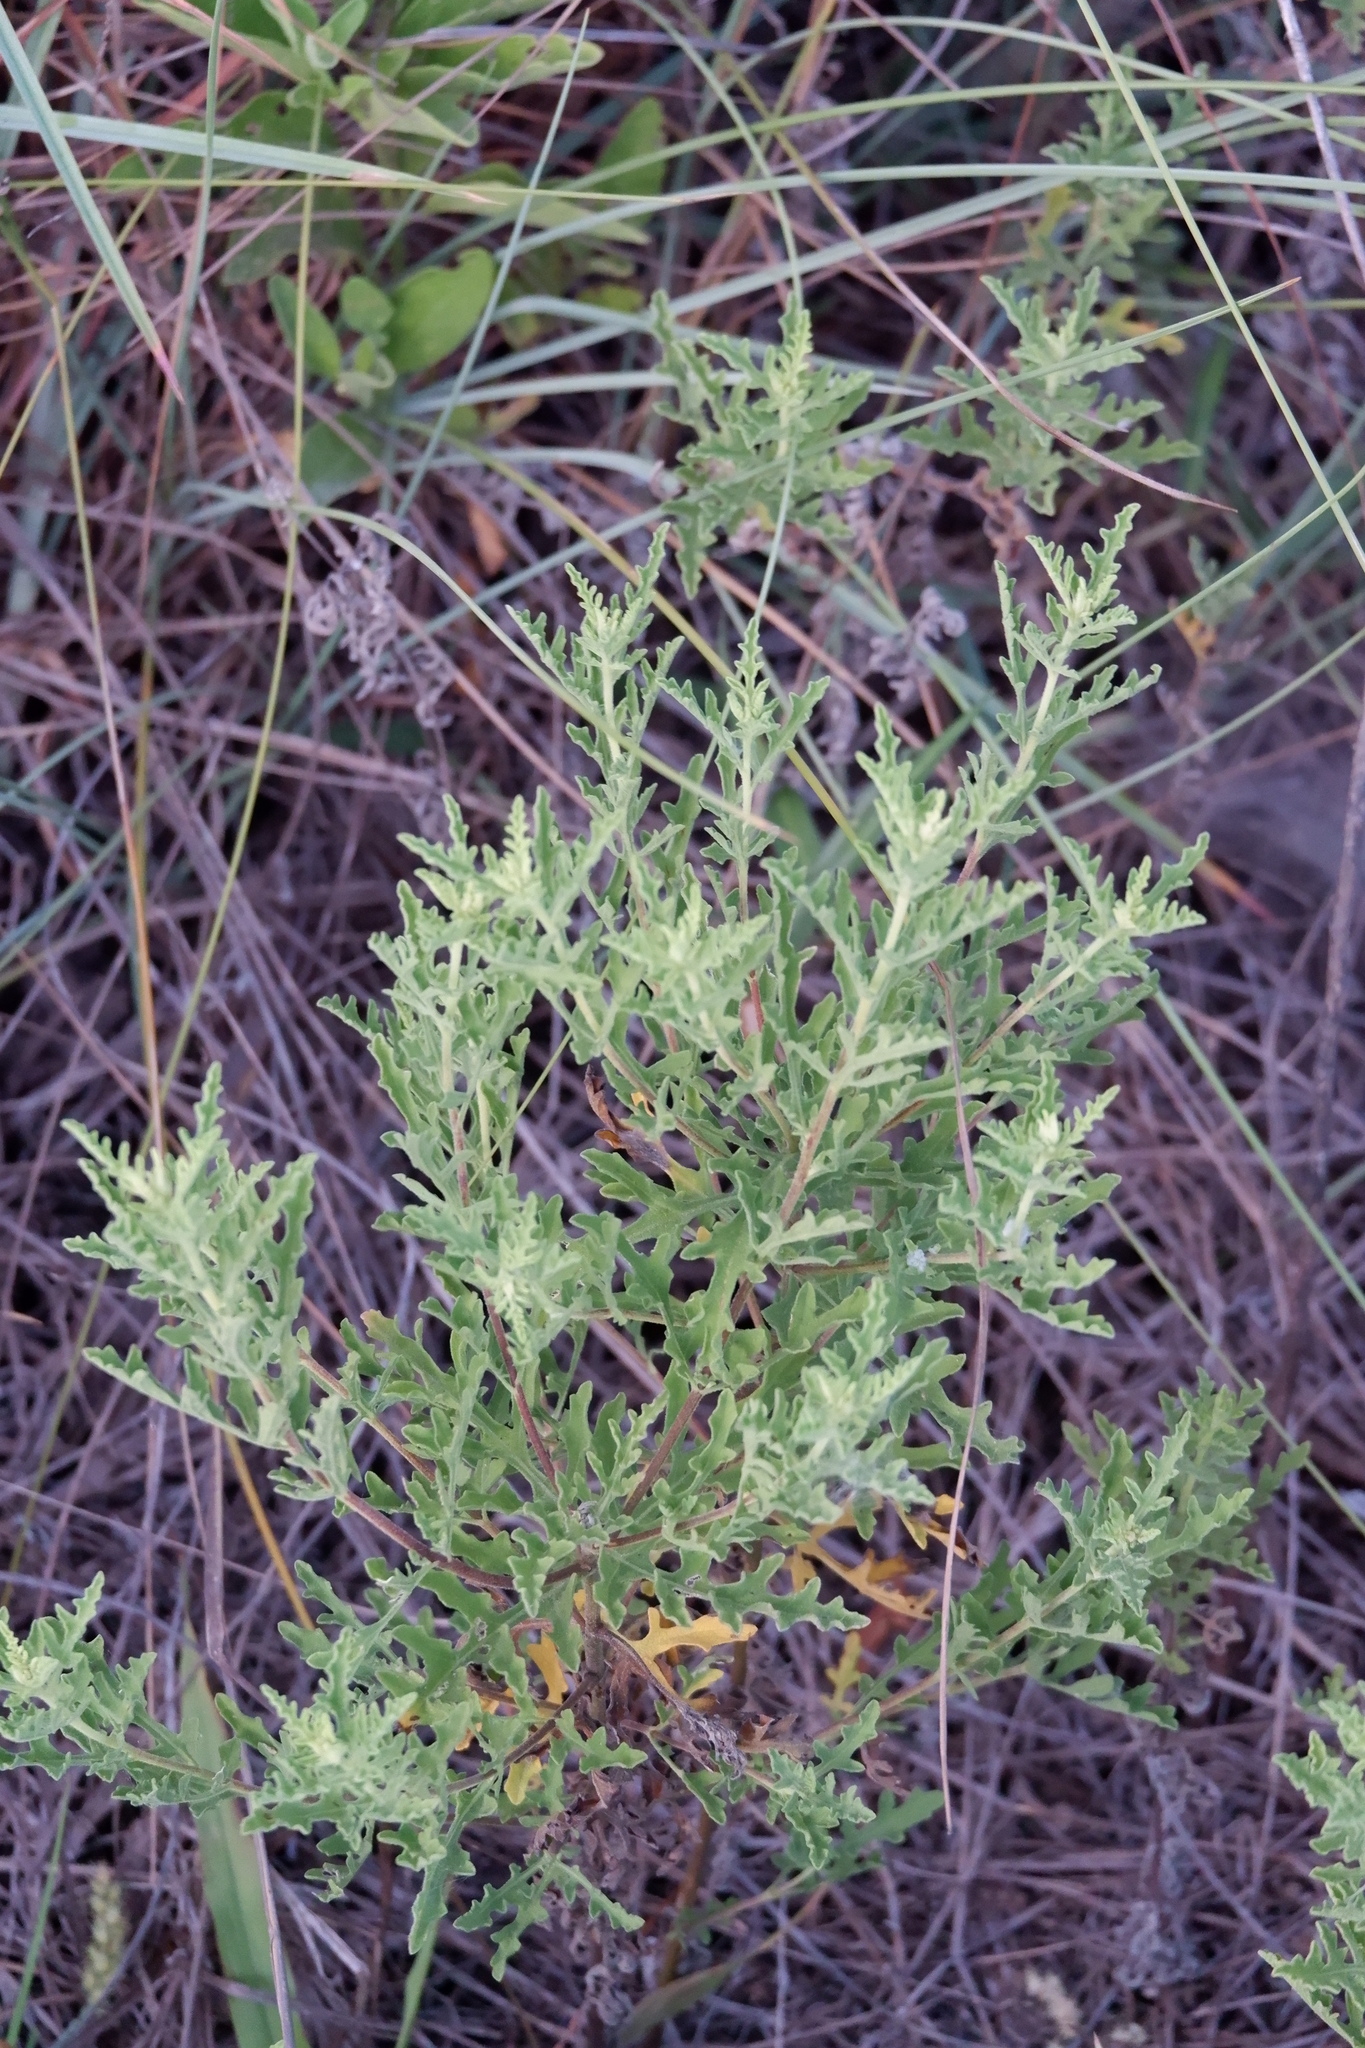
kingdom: Plantae
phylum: Tracheophyta
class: Magnoliopsida
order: Asterales
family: Asteraceae
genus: Ambrosia
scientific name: Ambrosia psilostachya
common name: Perennial ragweed
